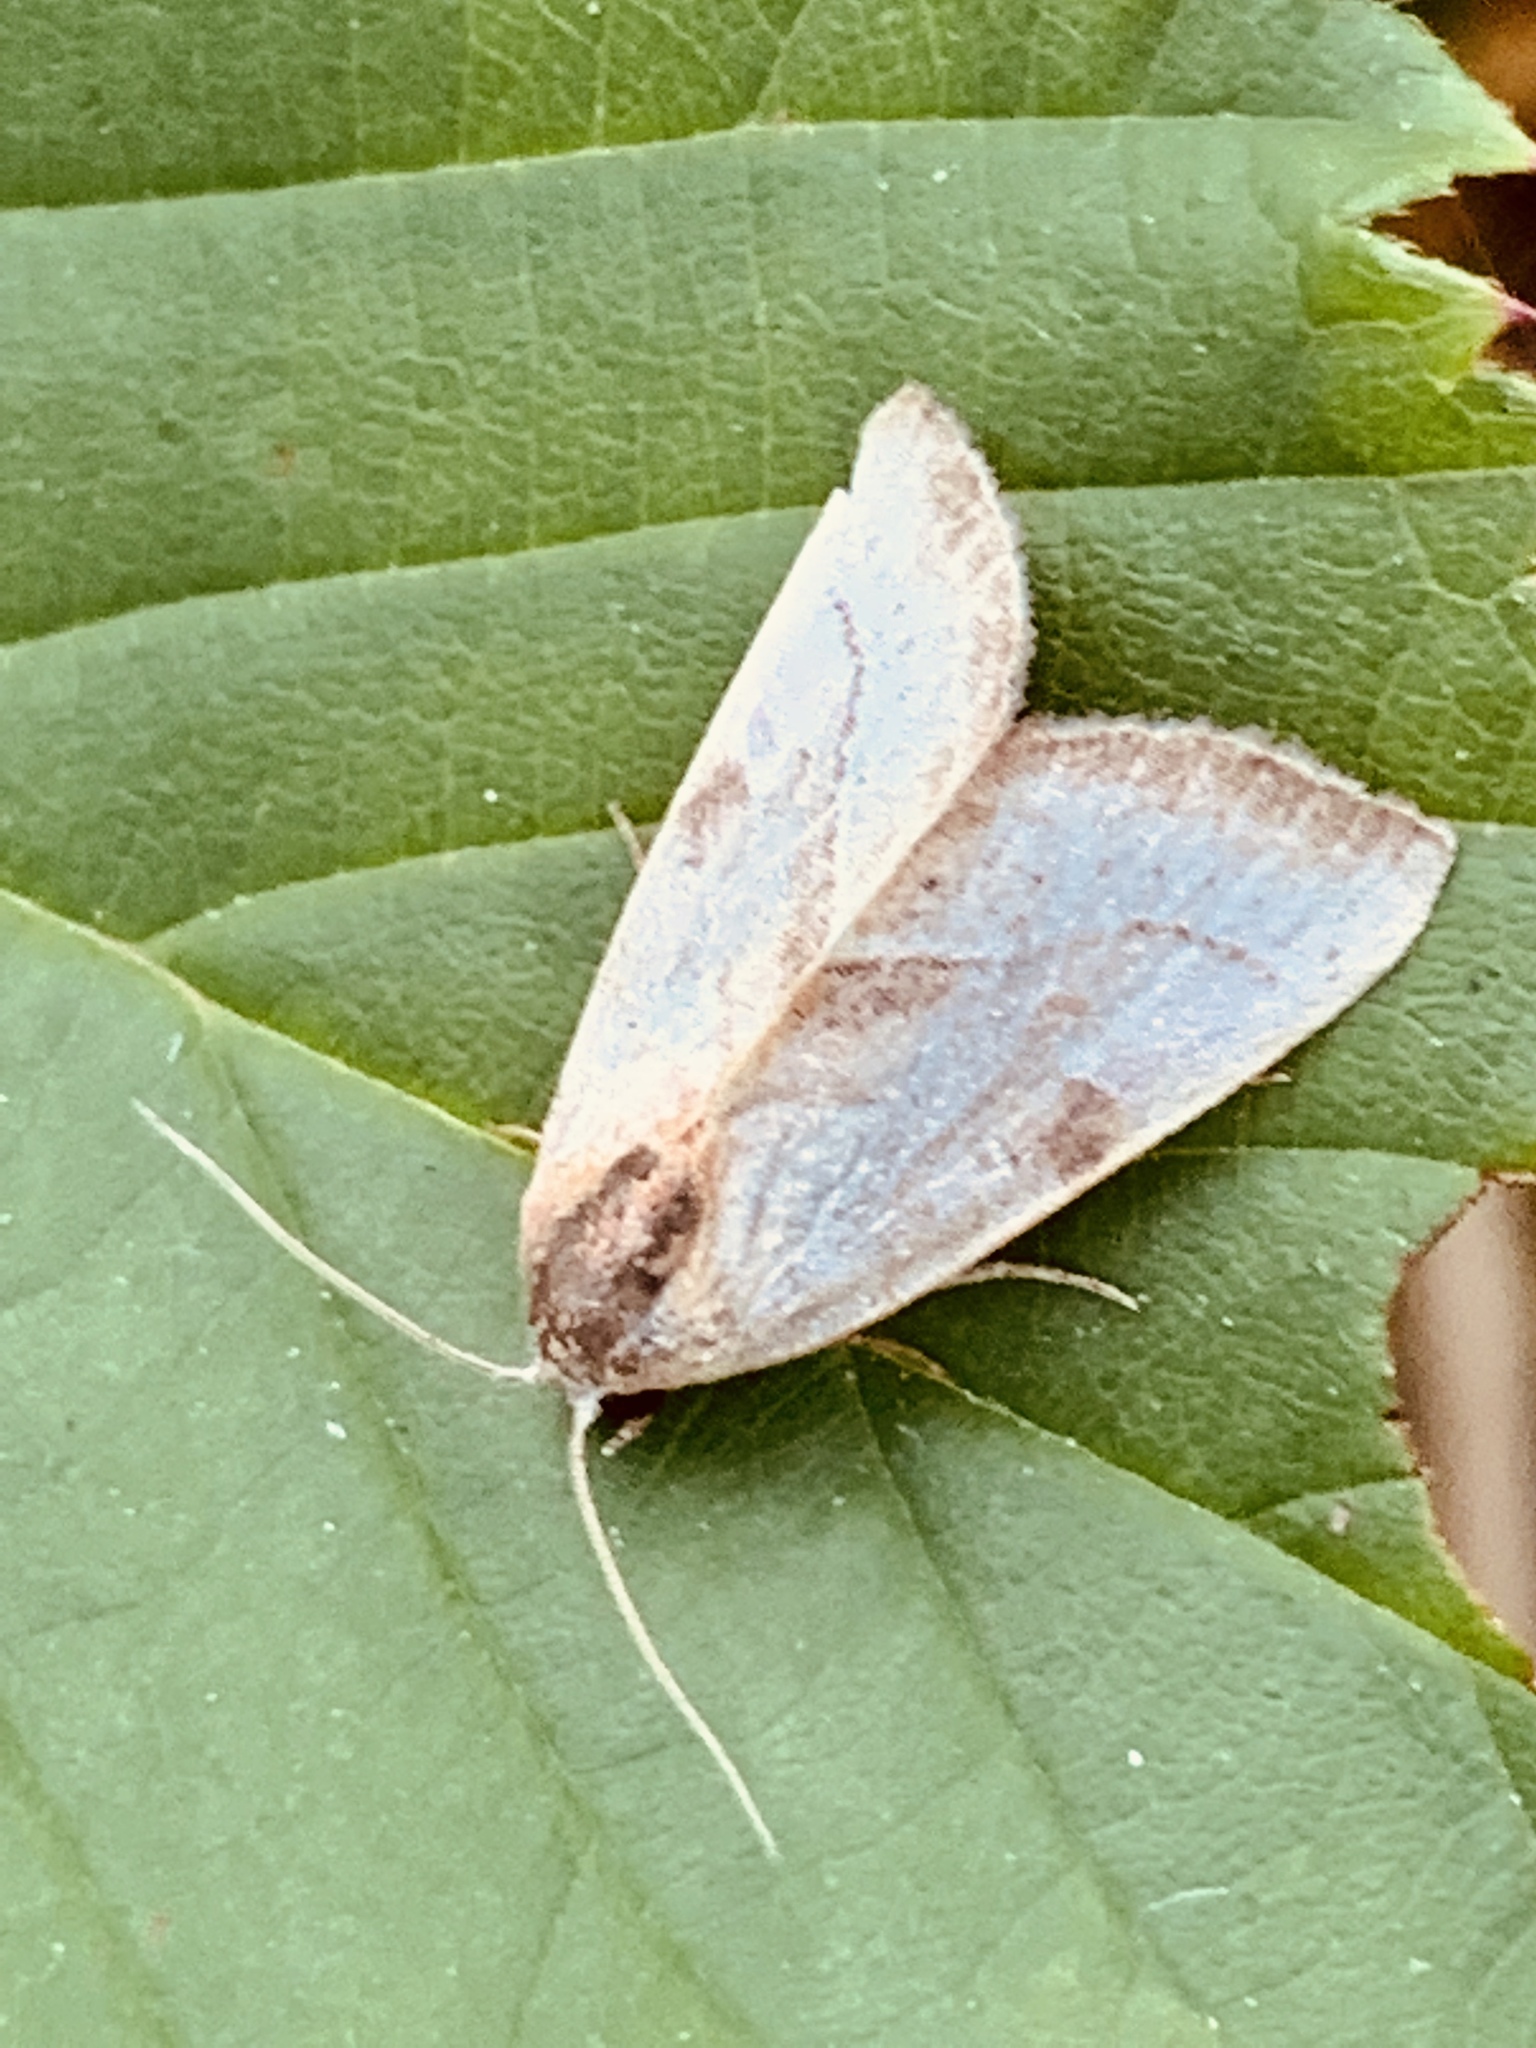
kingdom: Animalia
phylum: Arthropoda
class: Insecta
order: Lepidoptera
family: Noctuidae
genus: Galgula
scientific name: Galgula partita
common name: Wedgeling
